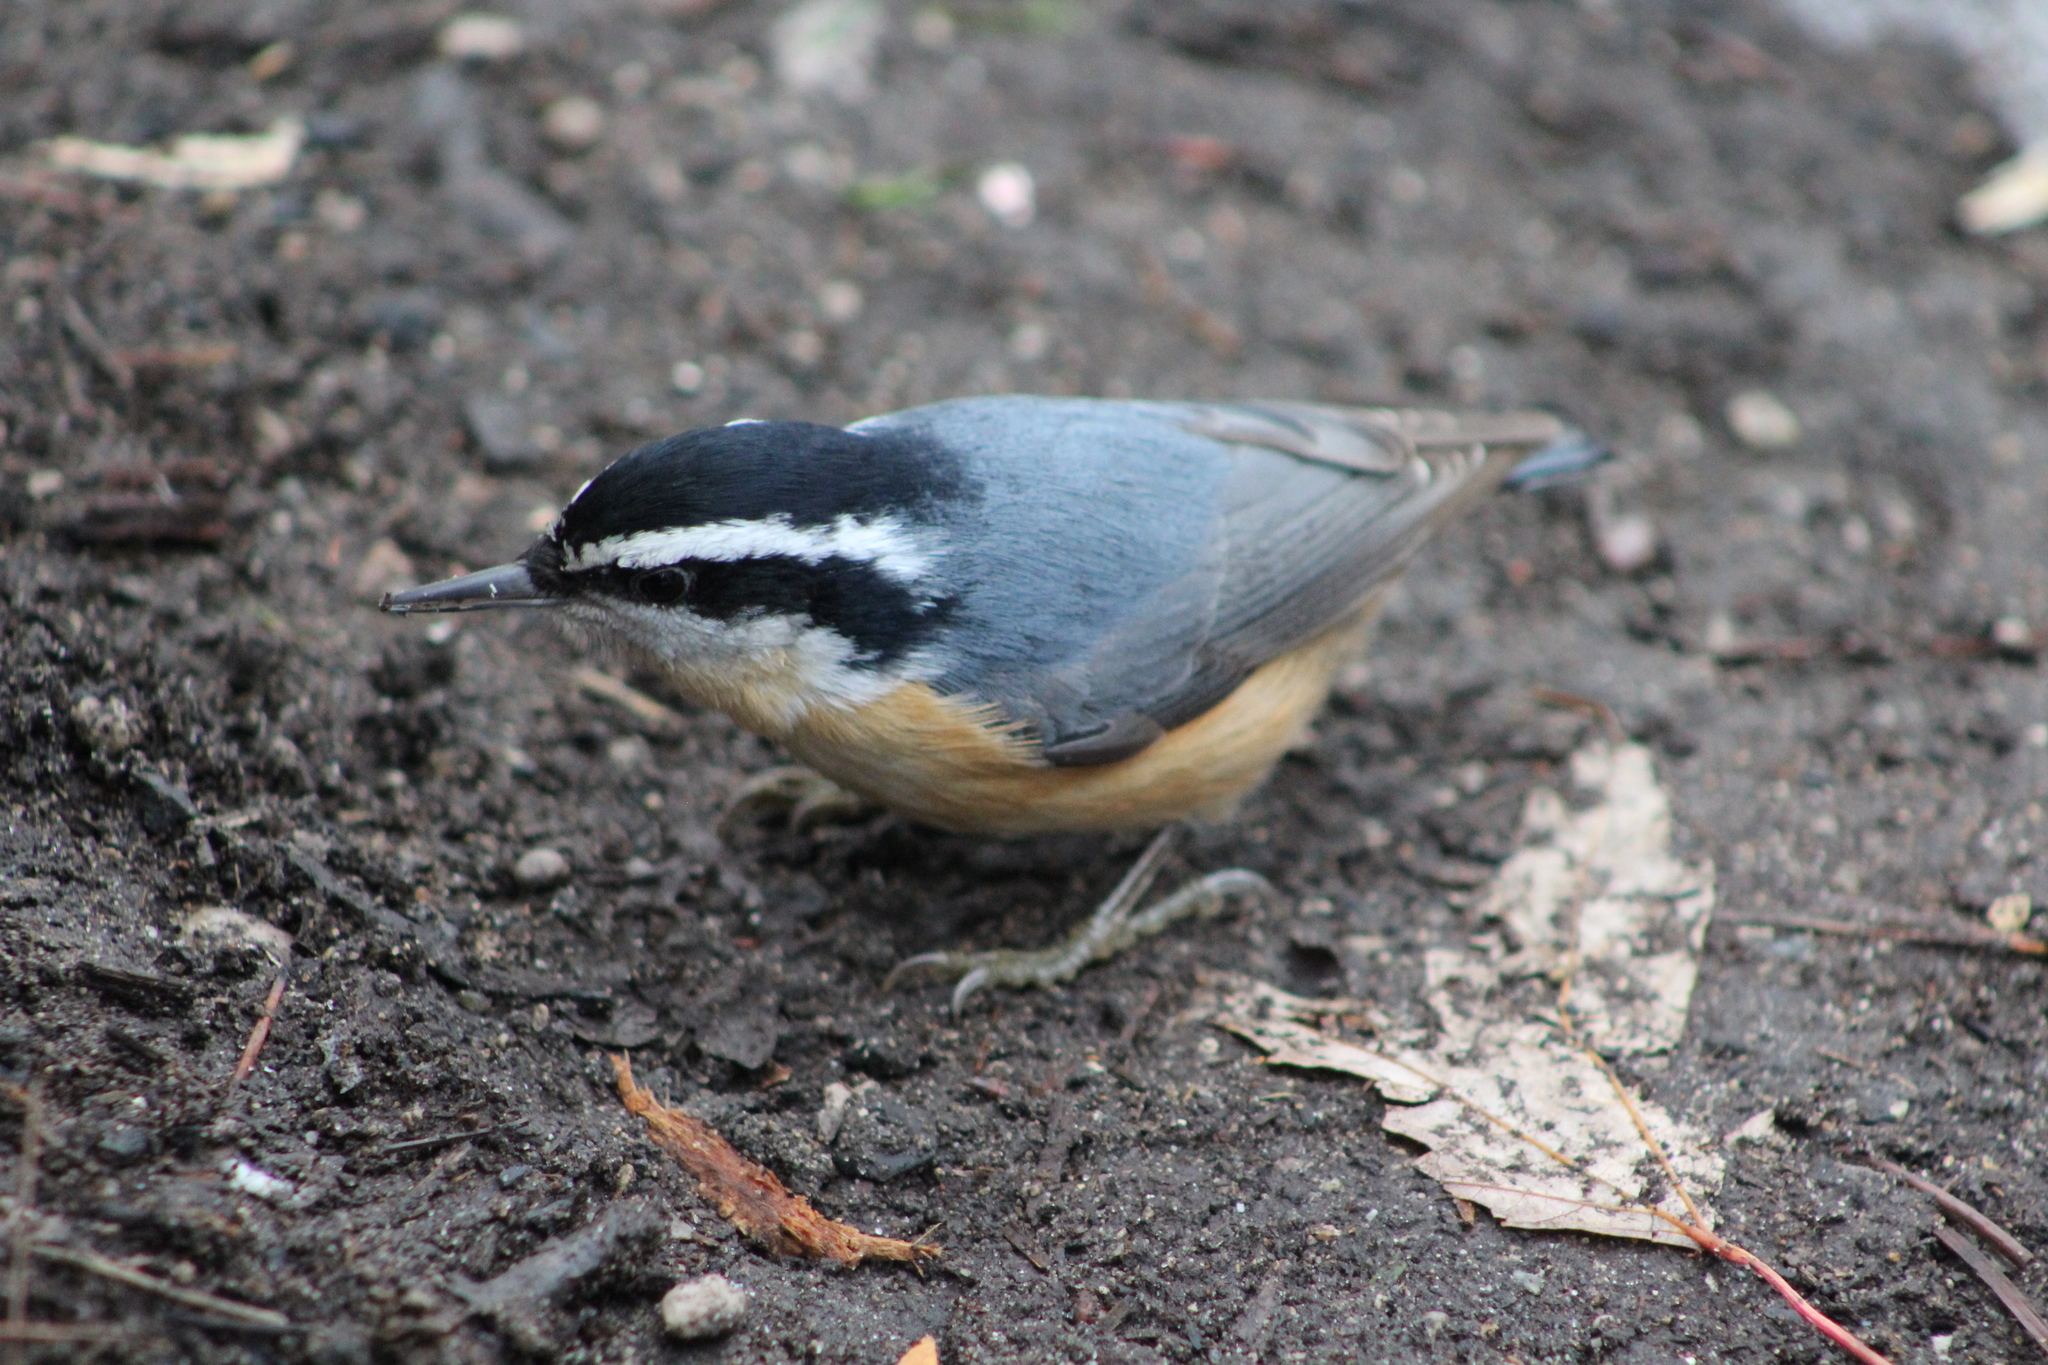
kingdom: Animalia
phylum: Chordata
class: Aves
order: Passeriformes
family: Sittidae
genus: Sitta
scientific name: Sitta canadensis
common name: Red-breasted nuthatch
